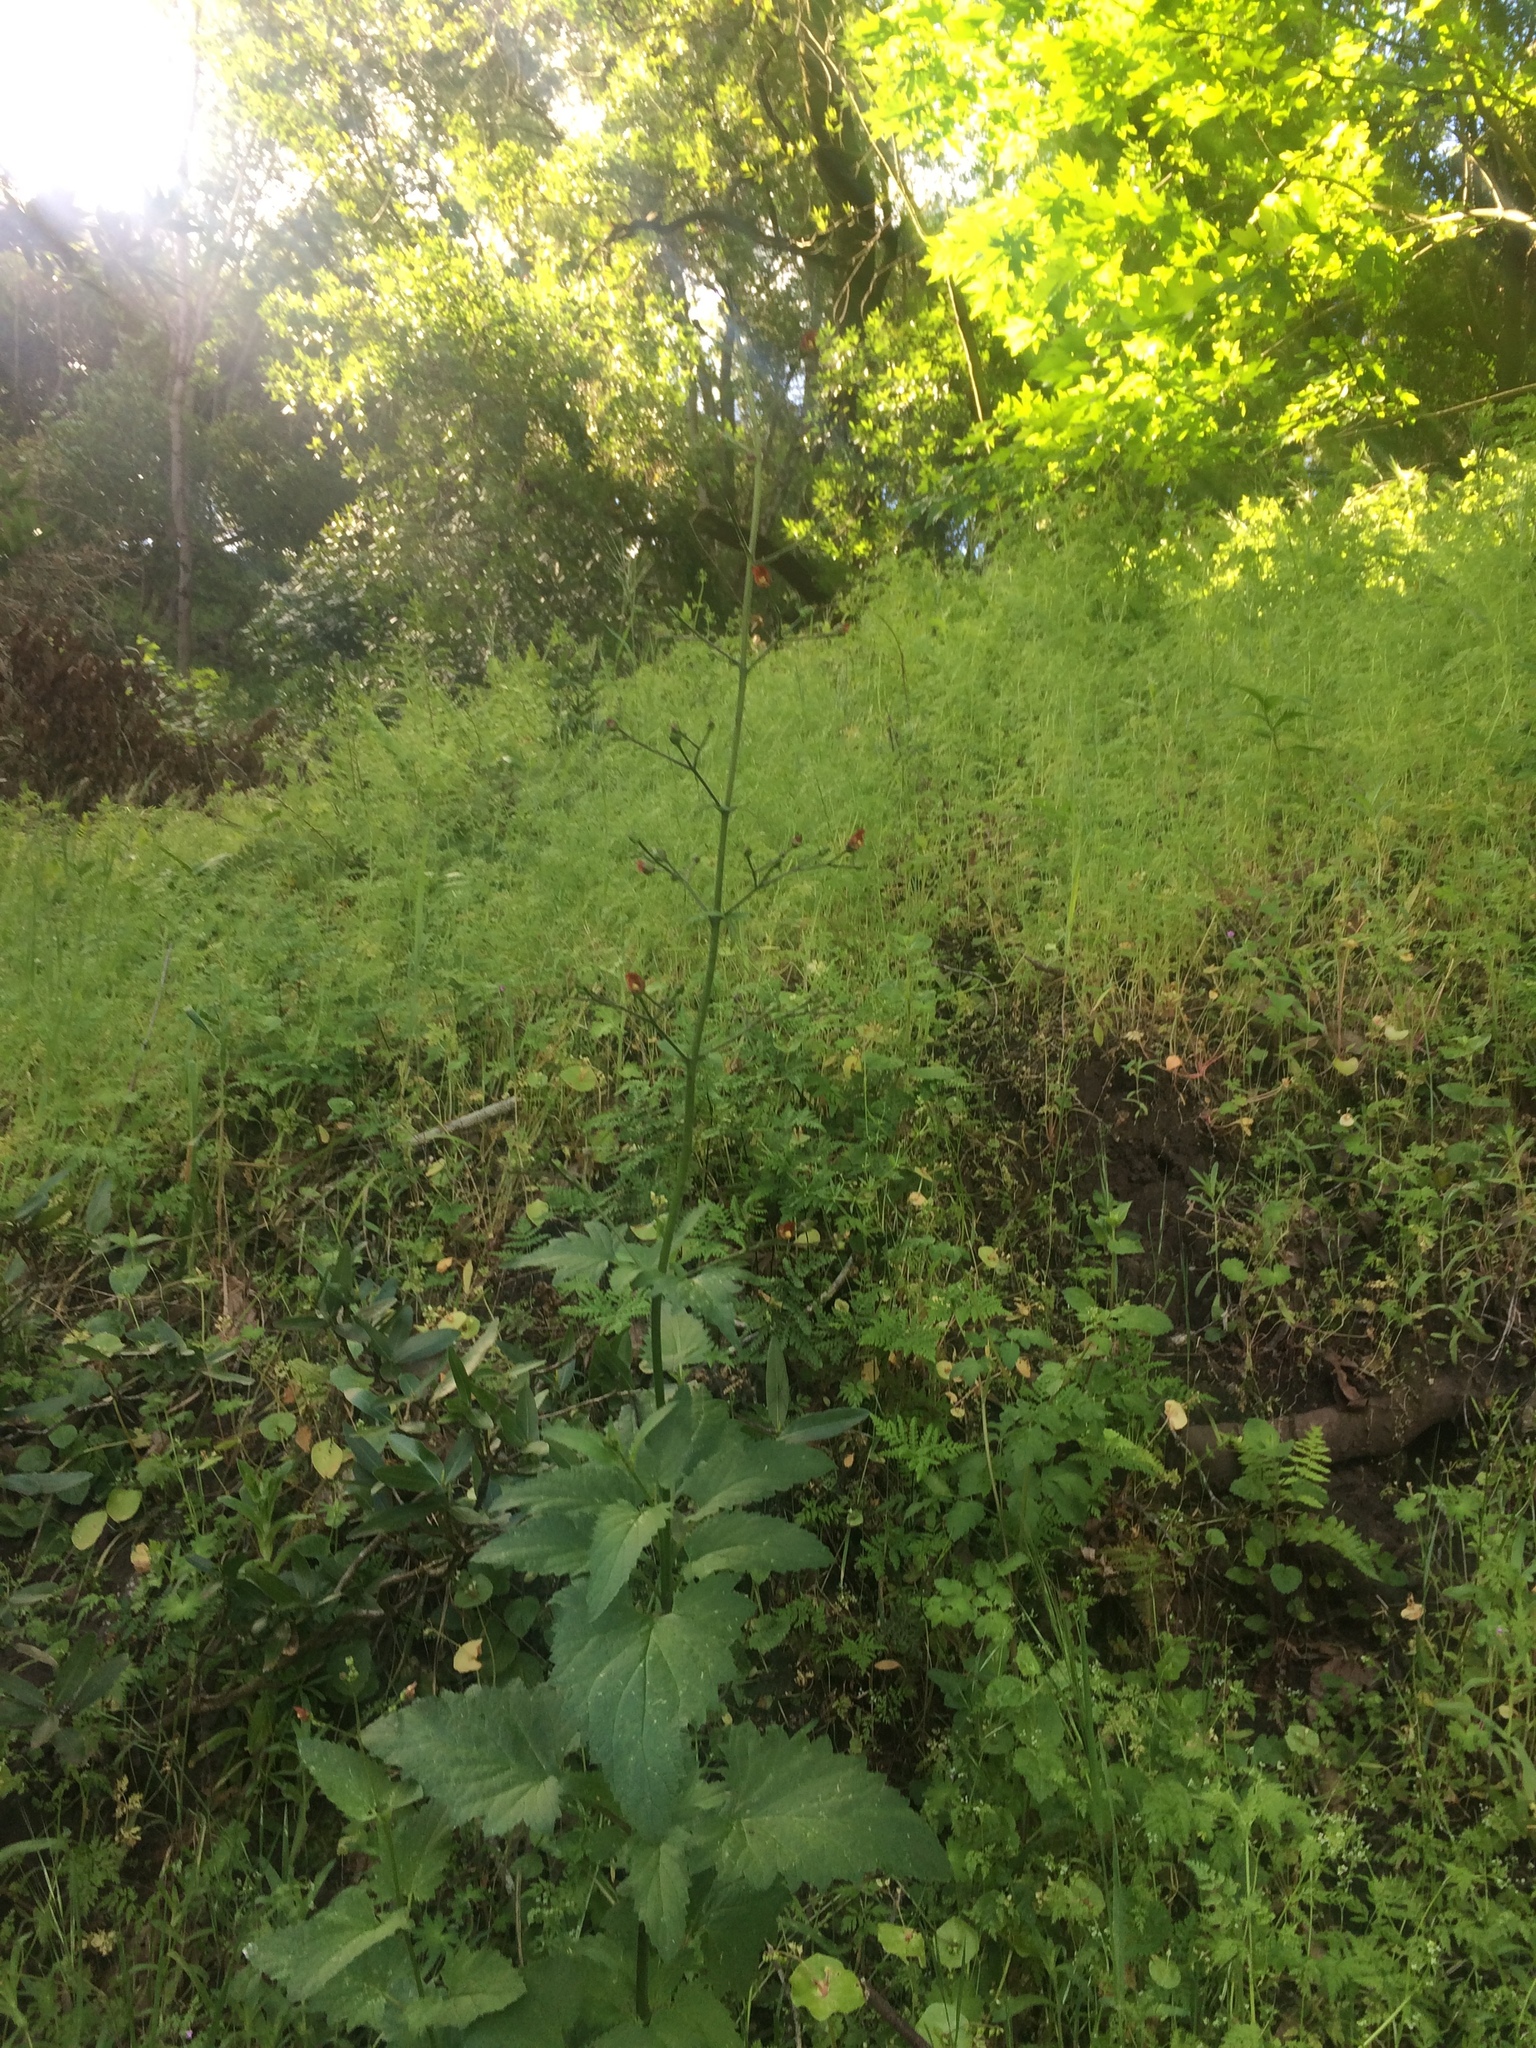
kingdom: Plantae
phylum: Tracheophyta
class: Magnoliopsida
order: Lamiales
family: Scrophulariaceae
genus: Scrophularia
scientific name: Scrophularia californica
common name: California figwort
